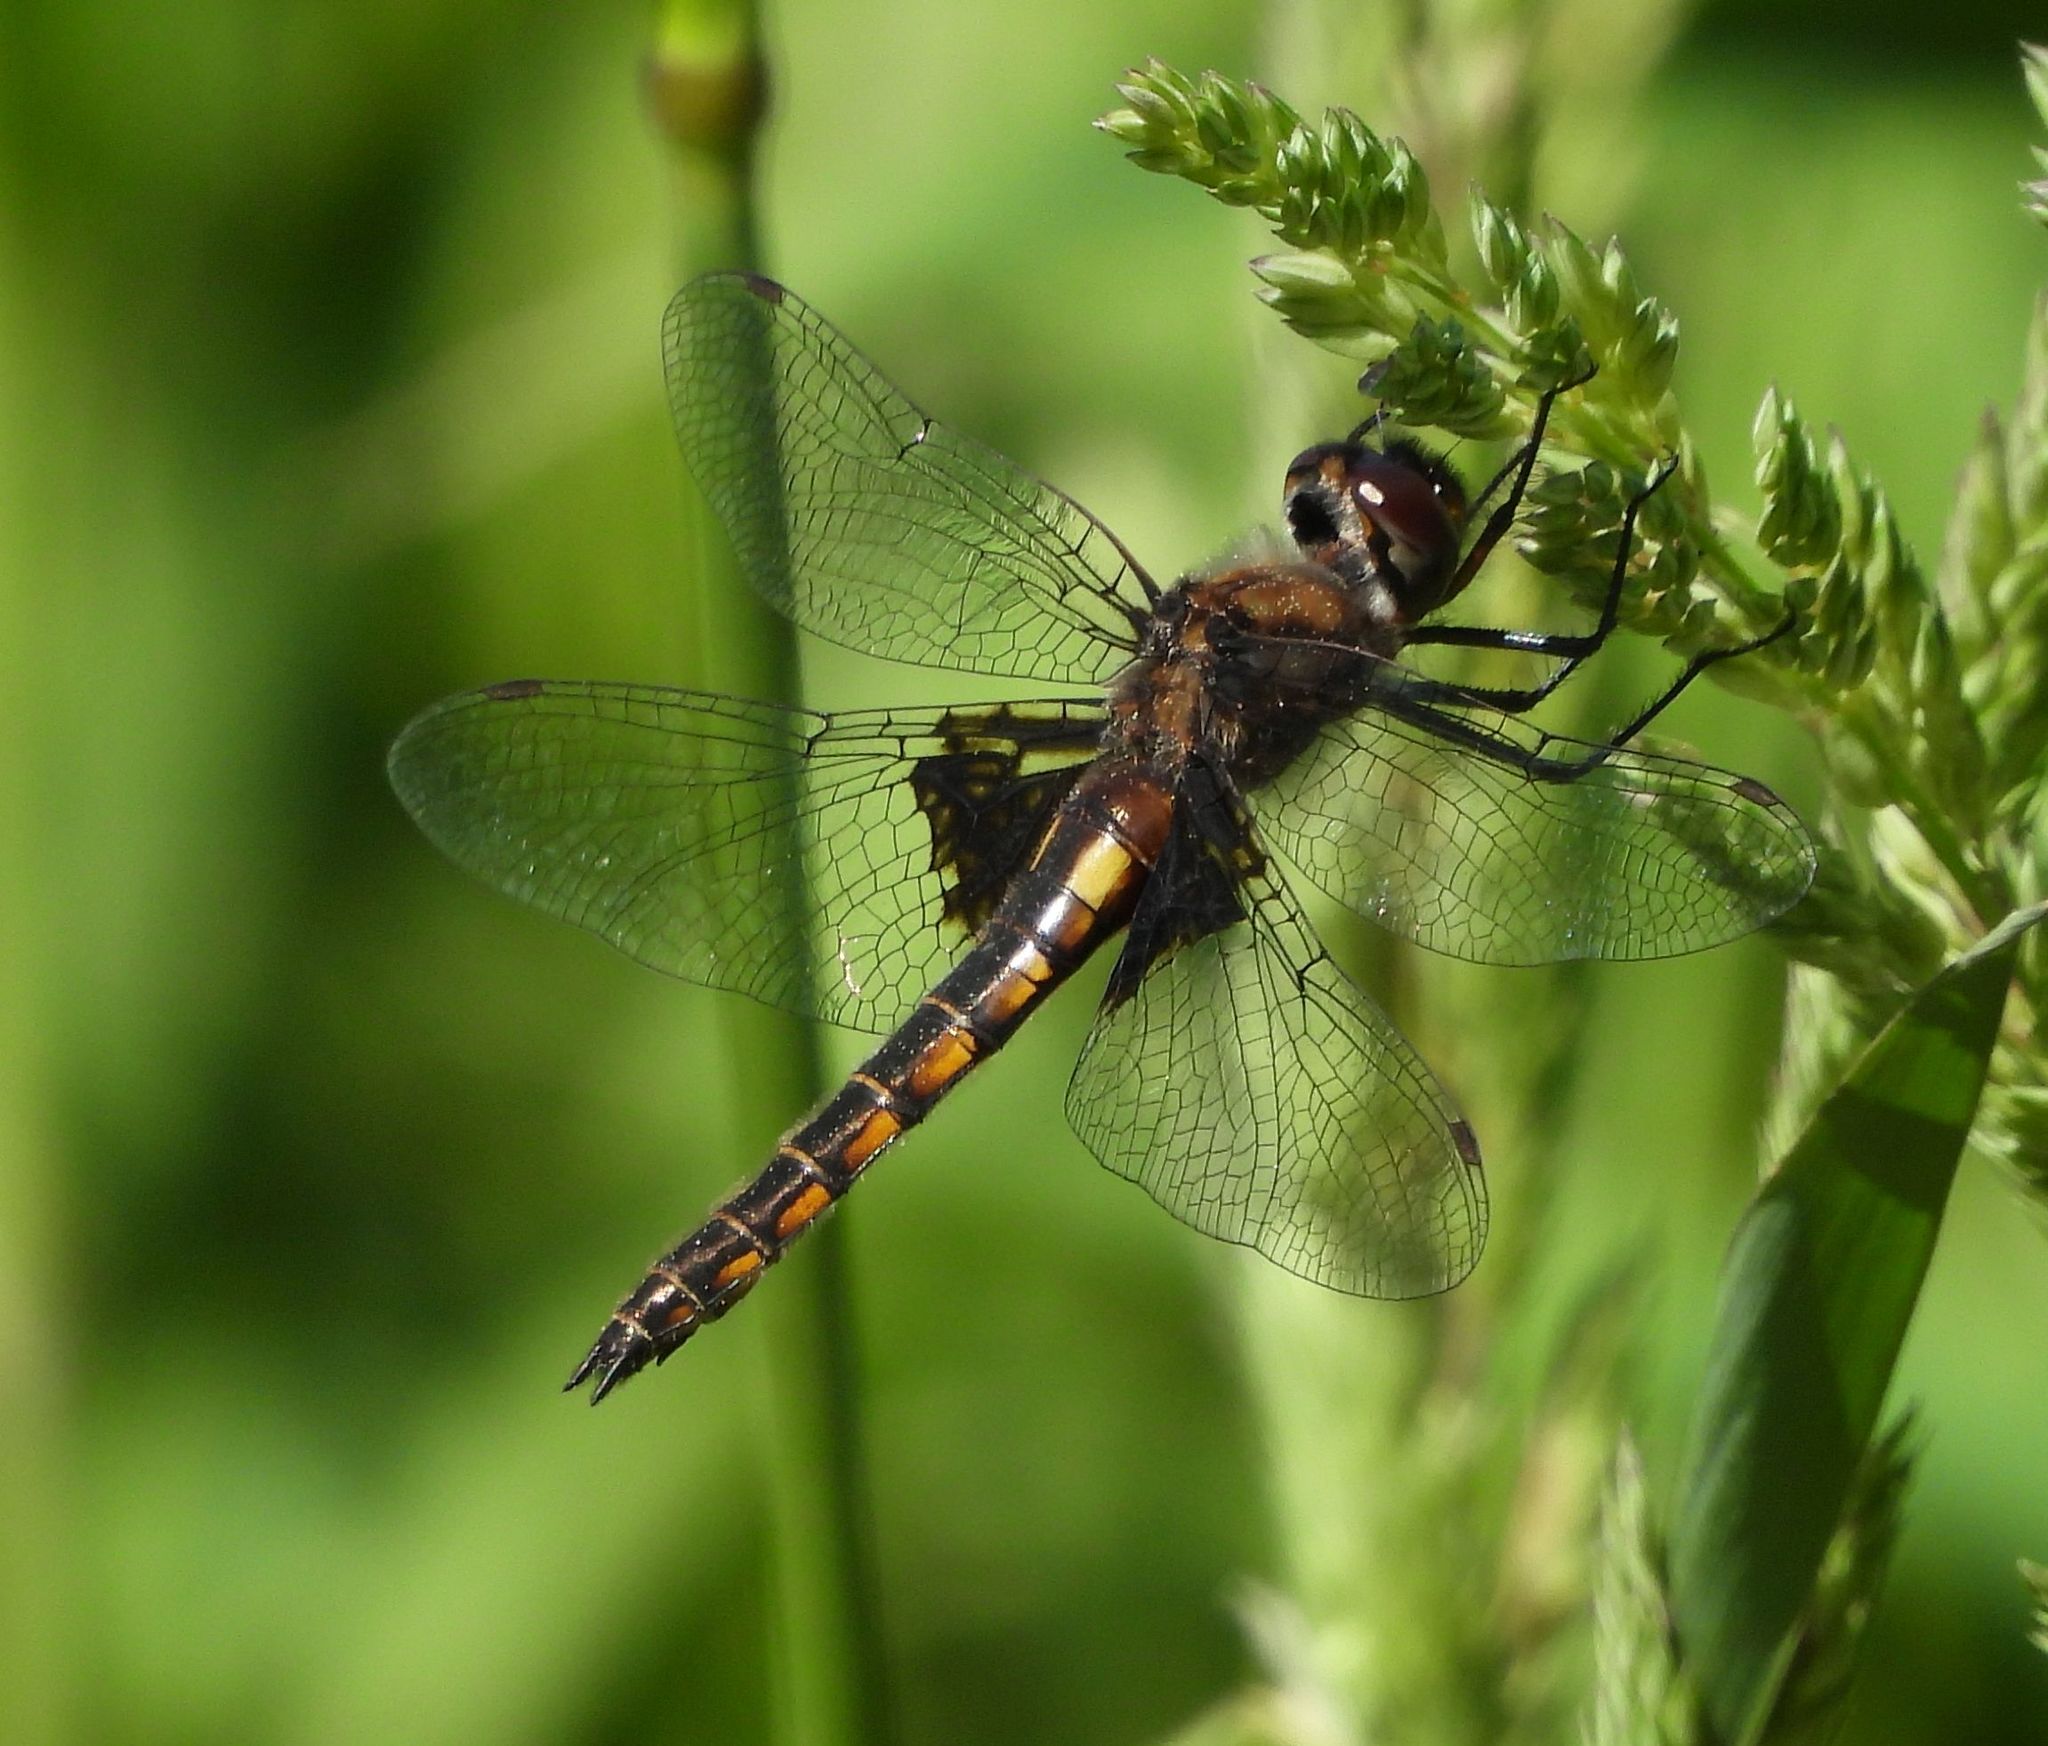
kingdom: Animalia
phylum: Arthropoda
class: Insecta
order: Odonata
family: Corduliidae
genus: Epitheca
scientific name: Epitheca cynosura
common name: Common baskettail
